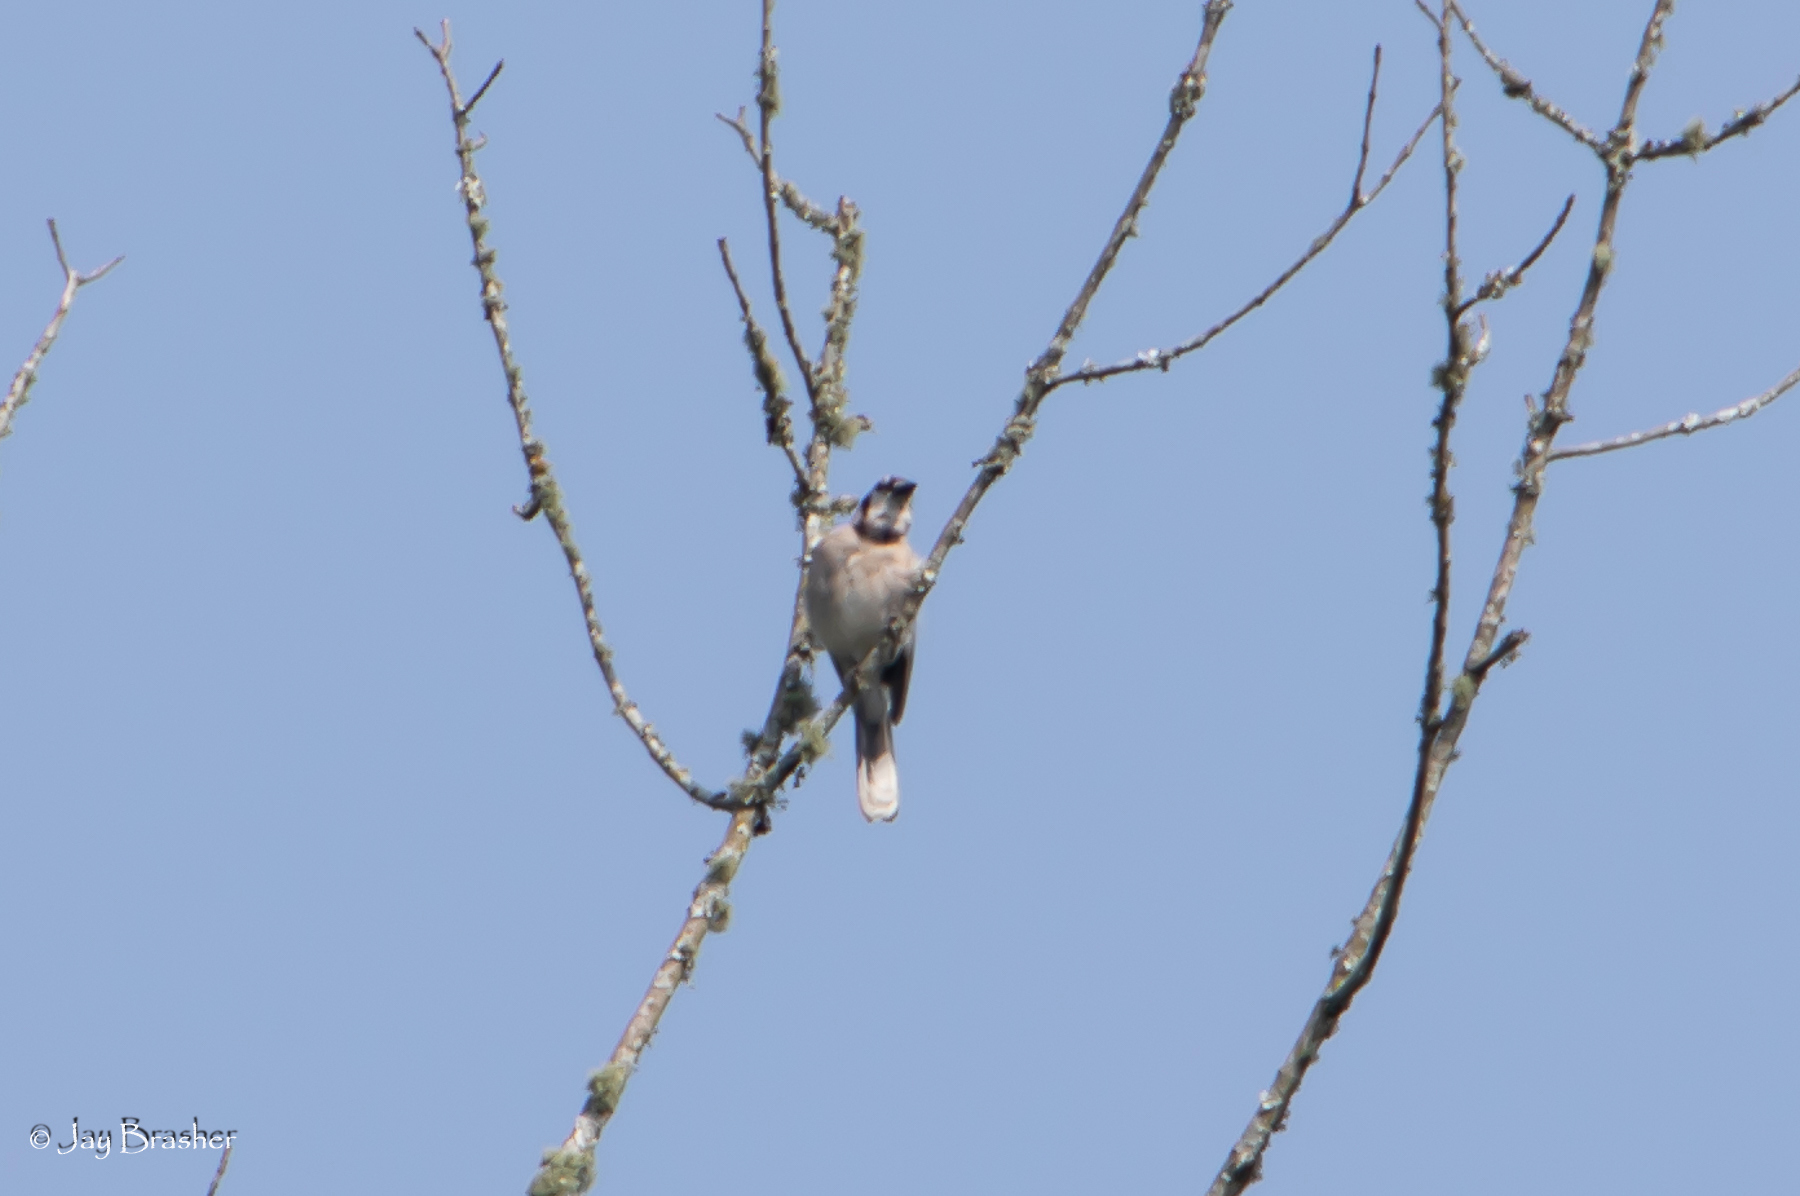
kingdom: Animalia
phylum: Chordata
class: Aves
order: Passeriformes
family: Corvidae
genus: Cyanocitta
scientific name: Cyanocitta cristata
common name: Blue jay
